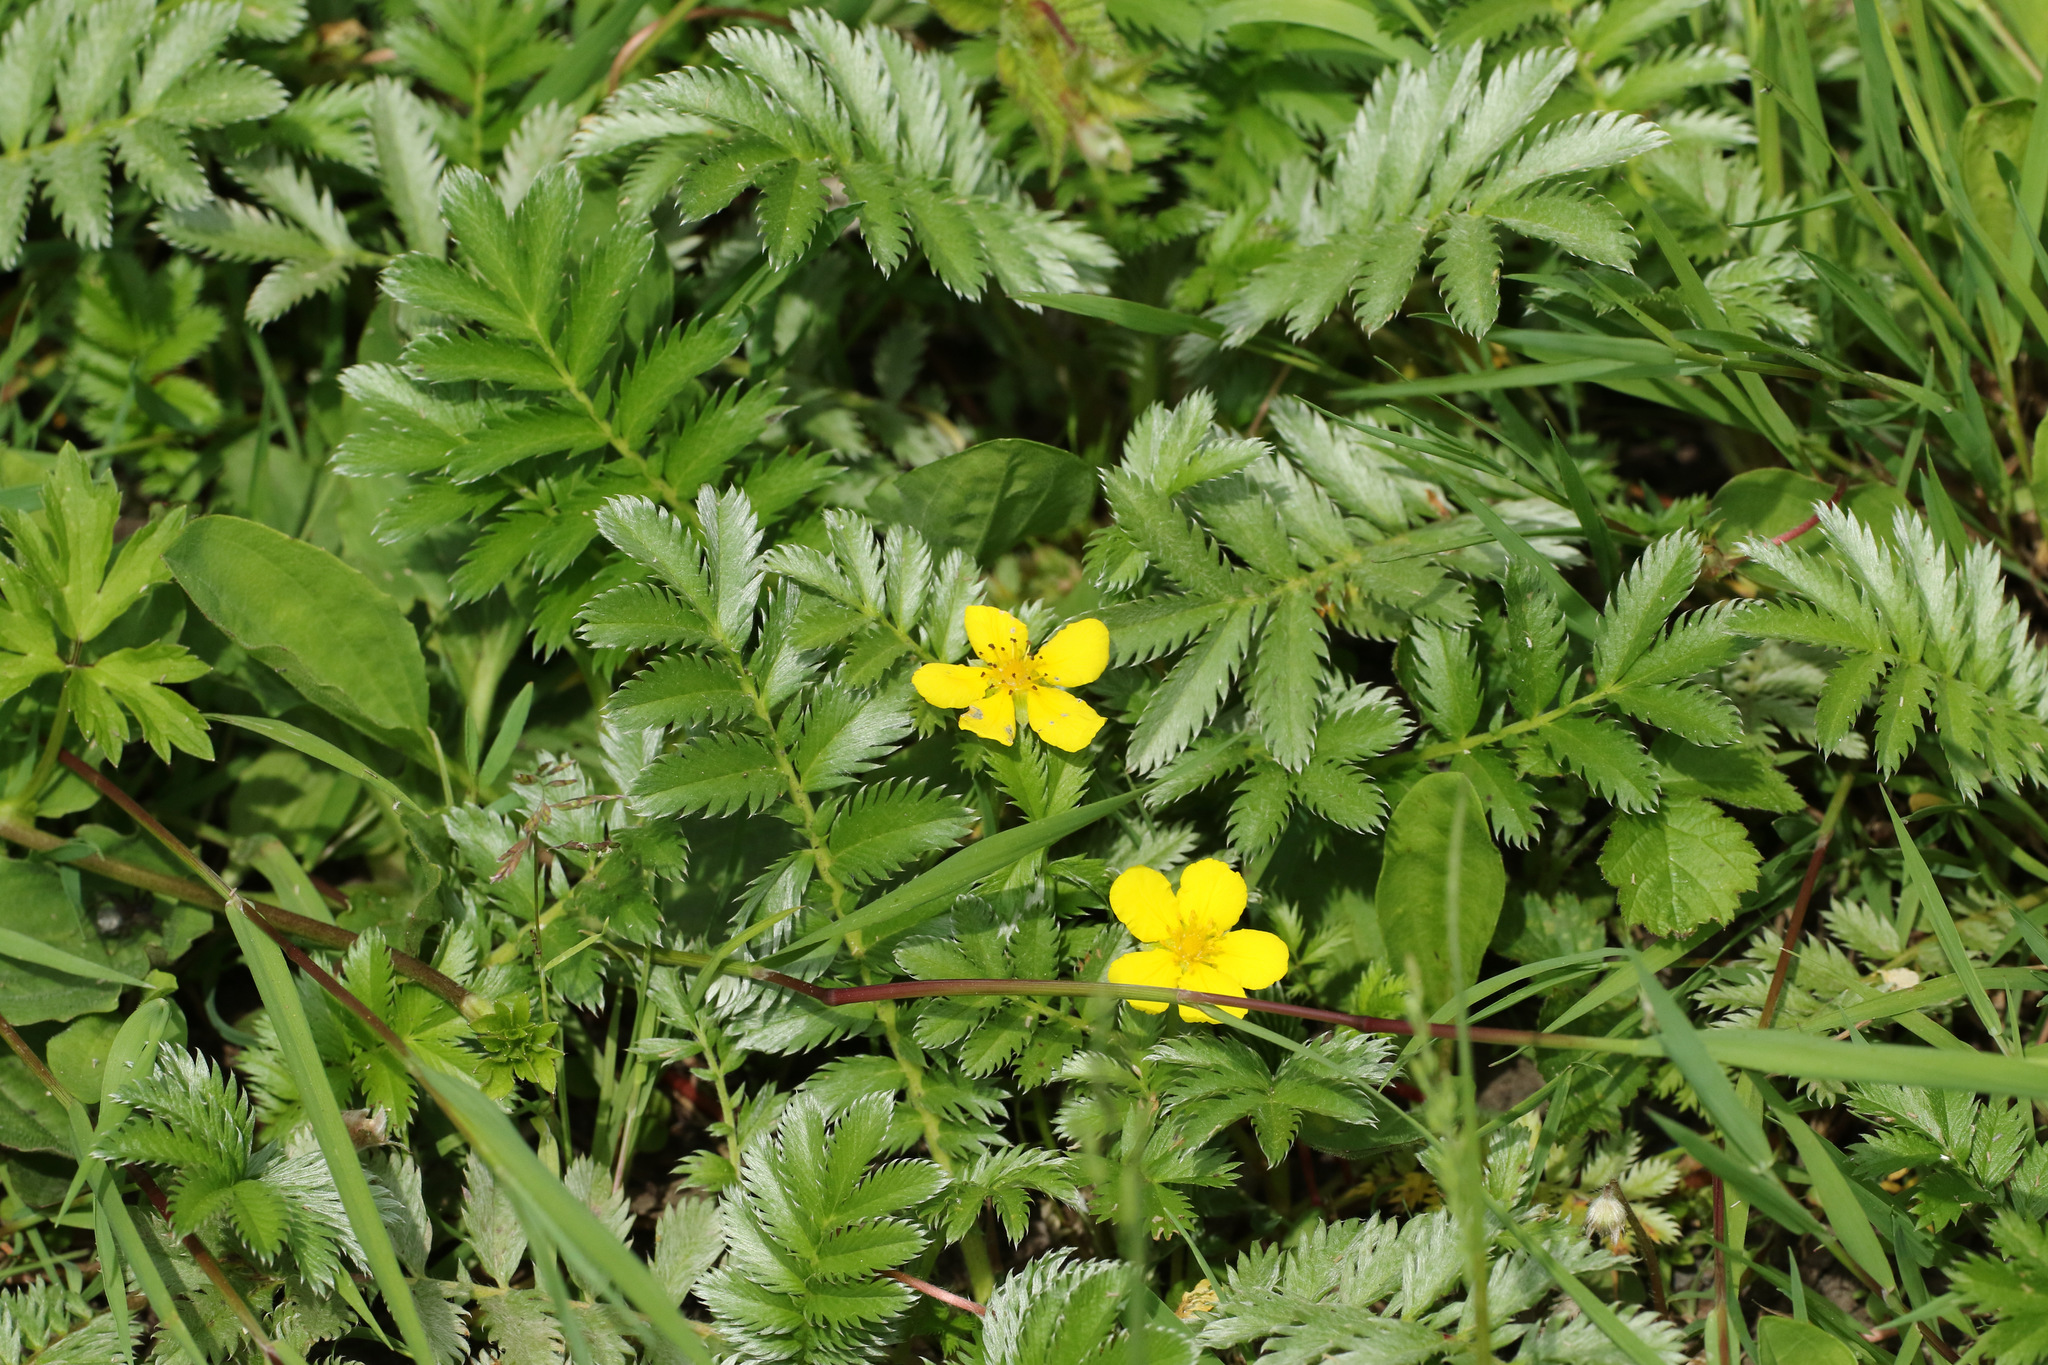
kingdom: Plantae
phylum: Tracheophyta
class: Magnoliopsida
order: Rosales
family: Rosaceae
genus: Argentina
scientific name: Argentina anserina
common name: Common silverweed
